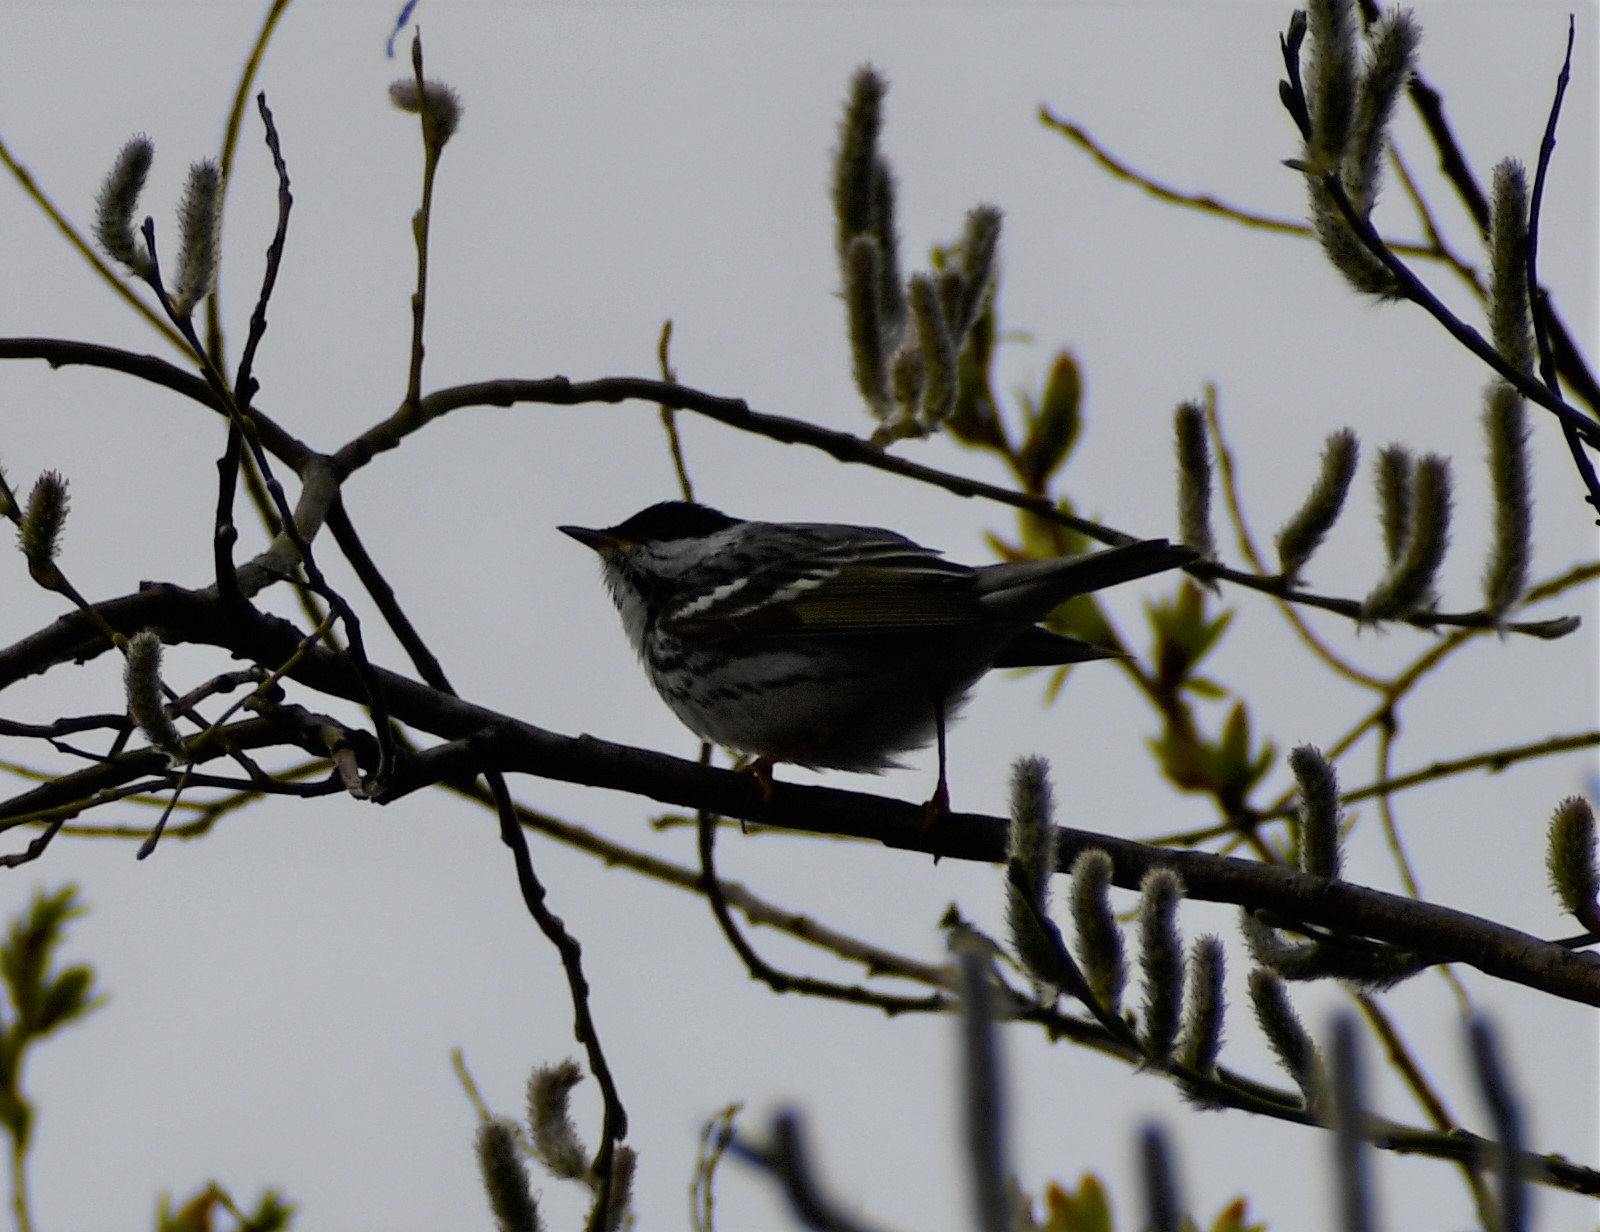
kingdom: Animalia
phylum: Chordata
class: Aves
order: Passeriformes
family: Parulidae
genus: Setophaga
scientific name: Setophaga striata
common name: Blackpoll warbler
